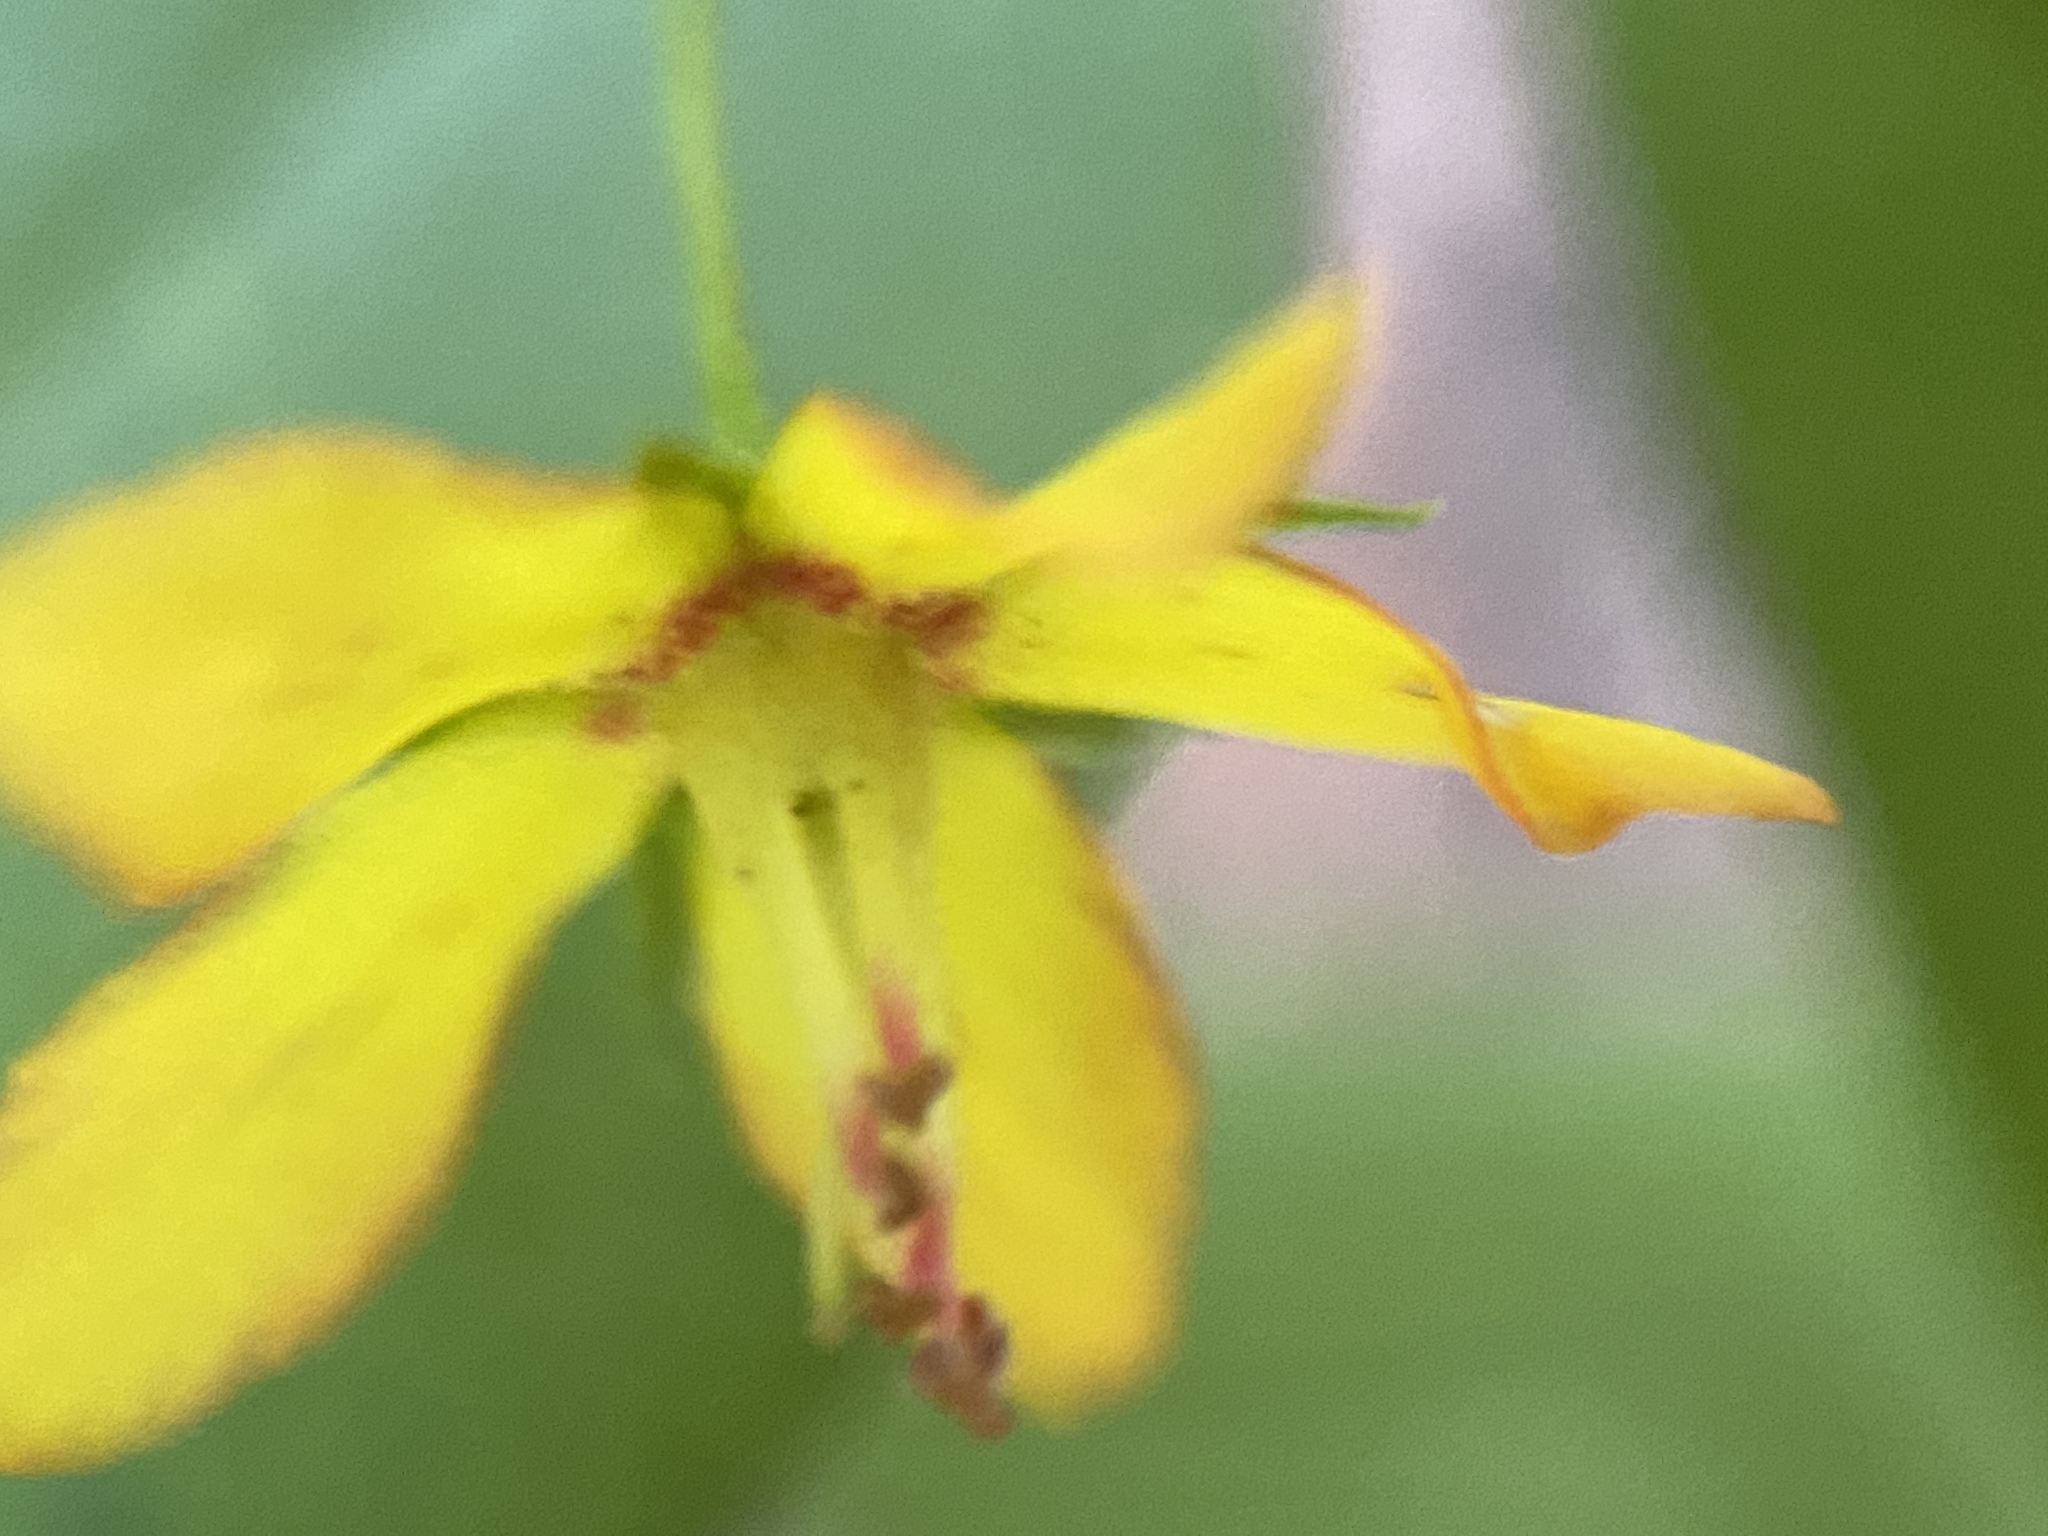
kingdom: Plantae
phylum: Tracheophyta
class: Magnoliopsida
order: Ericales
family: Primulaceae
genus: Lysimachia
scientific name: Lysimachia quadrifolia
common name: Whorled loosestrife
